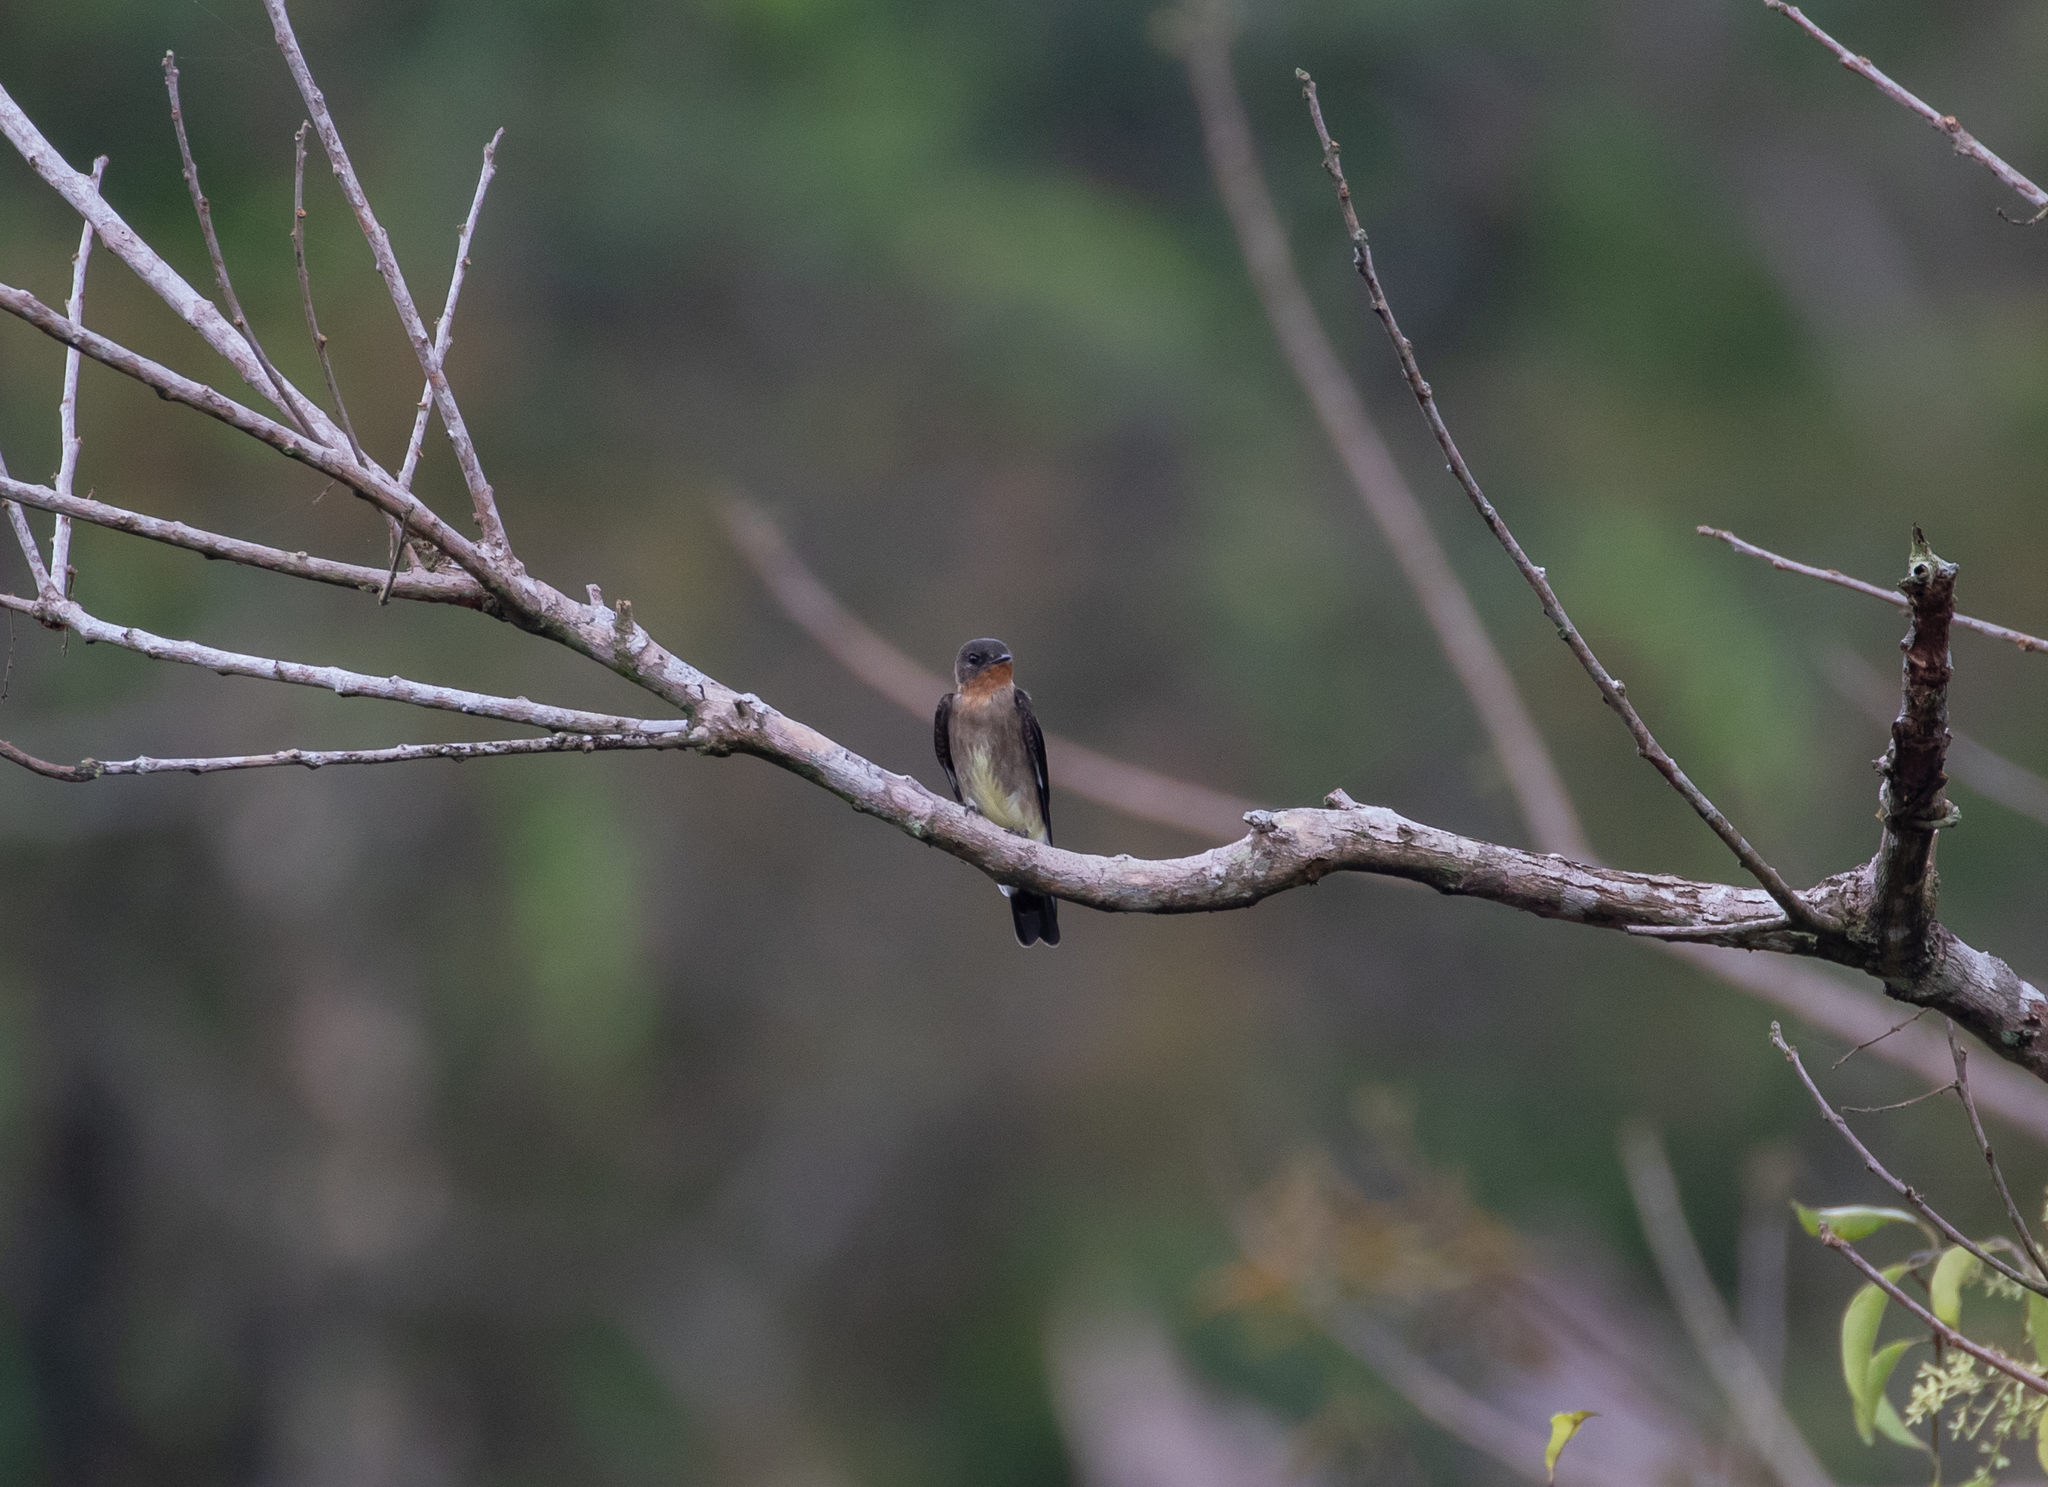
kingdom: Animalia
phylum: Chordata
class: Aves
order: Passeriformes
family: Hirundinidae
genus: Stelgidopteryx
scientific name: Stelgidopteryx ruficollis
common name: Southern rough-winged swallow
